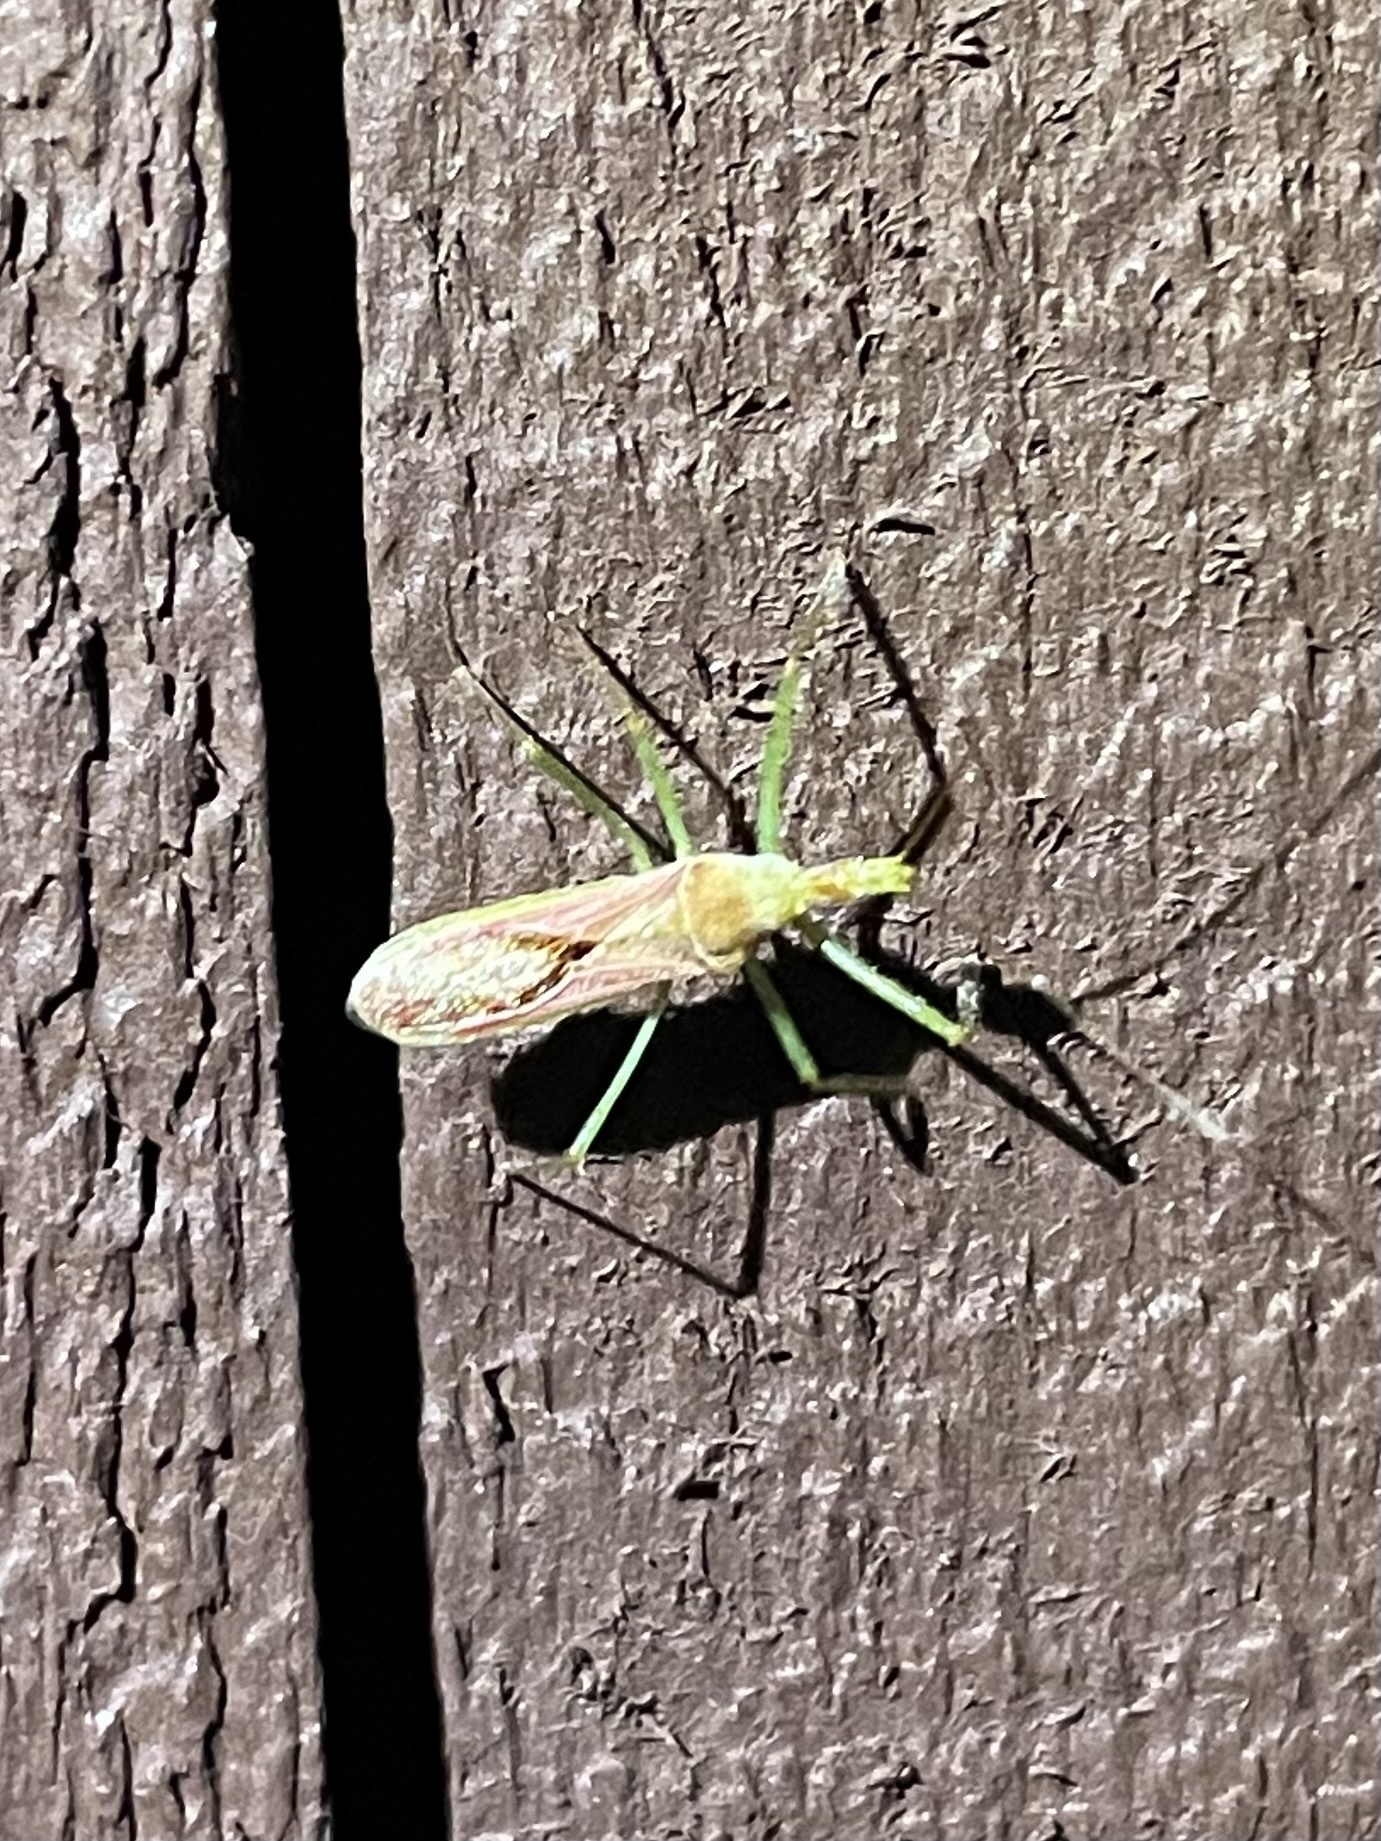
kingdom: Animalia
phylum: Arthropoda
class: Insecta
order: Hemiptera
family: Reduviidae
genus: Zelus
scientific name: Zelus renardii
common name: Assassin bug
